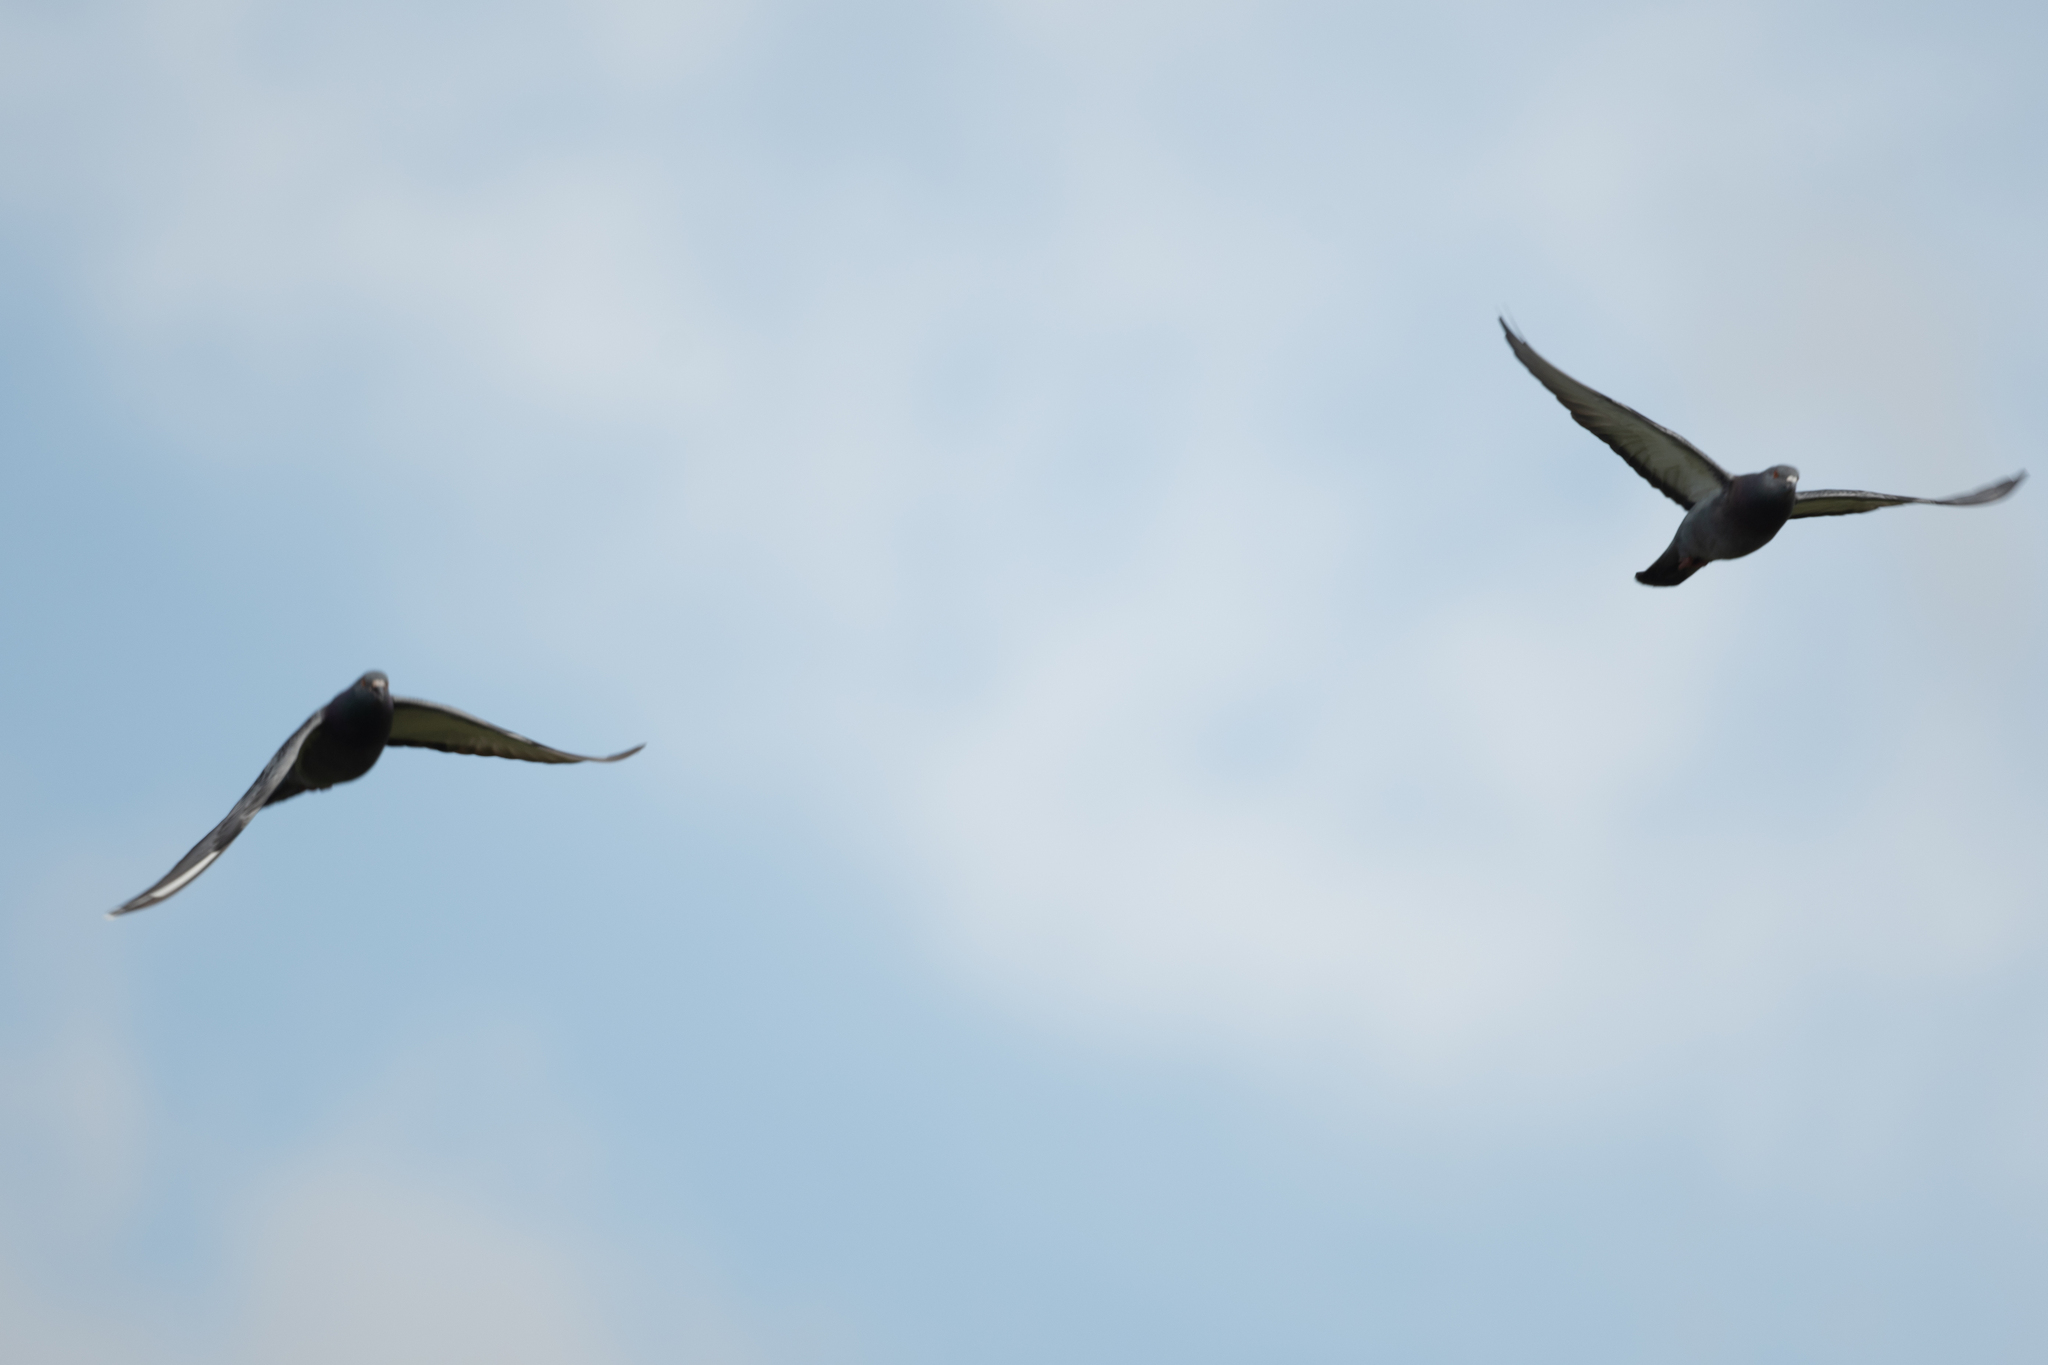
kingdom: Animalia
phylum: Chordata
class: Aves
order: Columbiformes
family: Columbidae
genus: Columba
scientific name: Columba livia
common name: Rock pigeon
